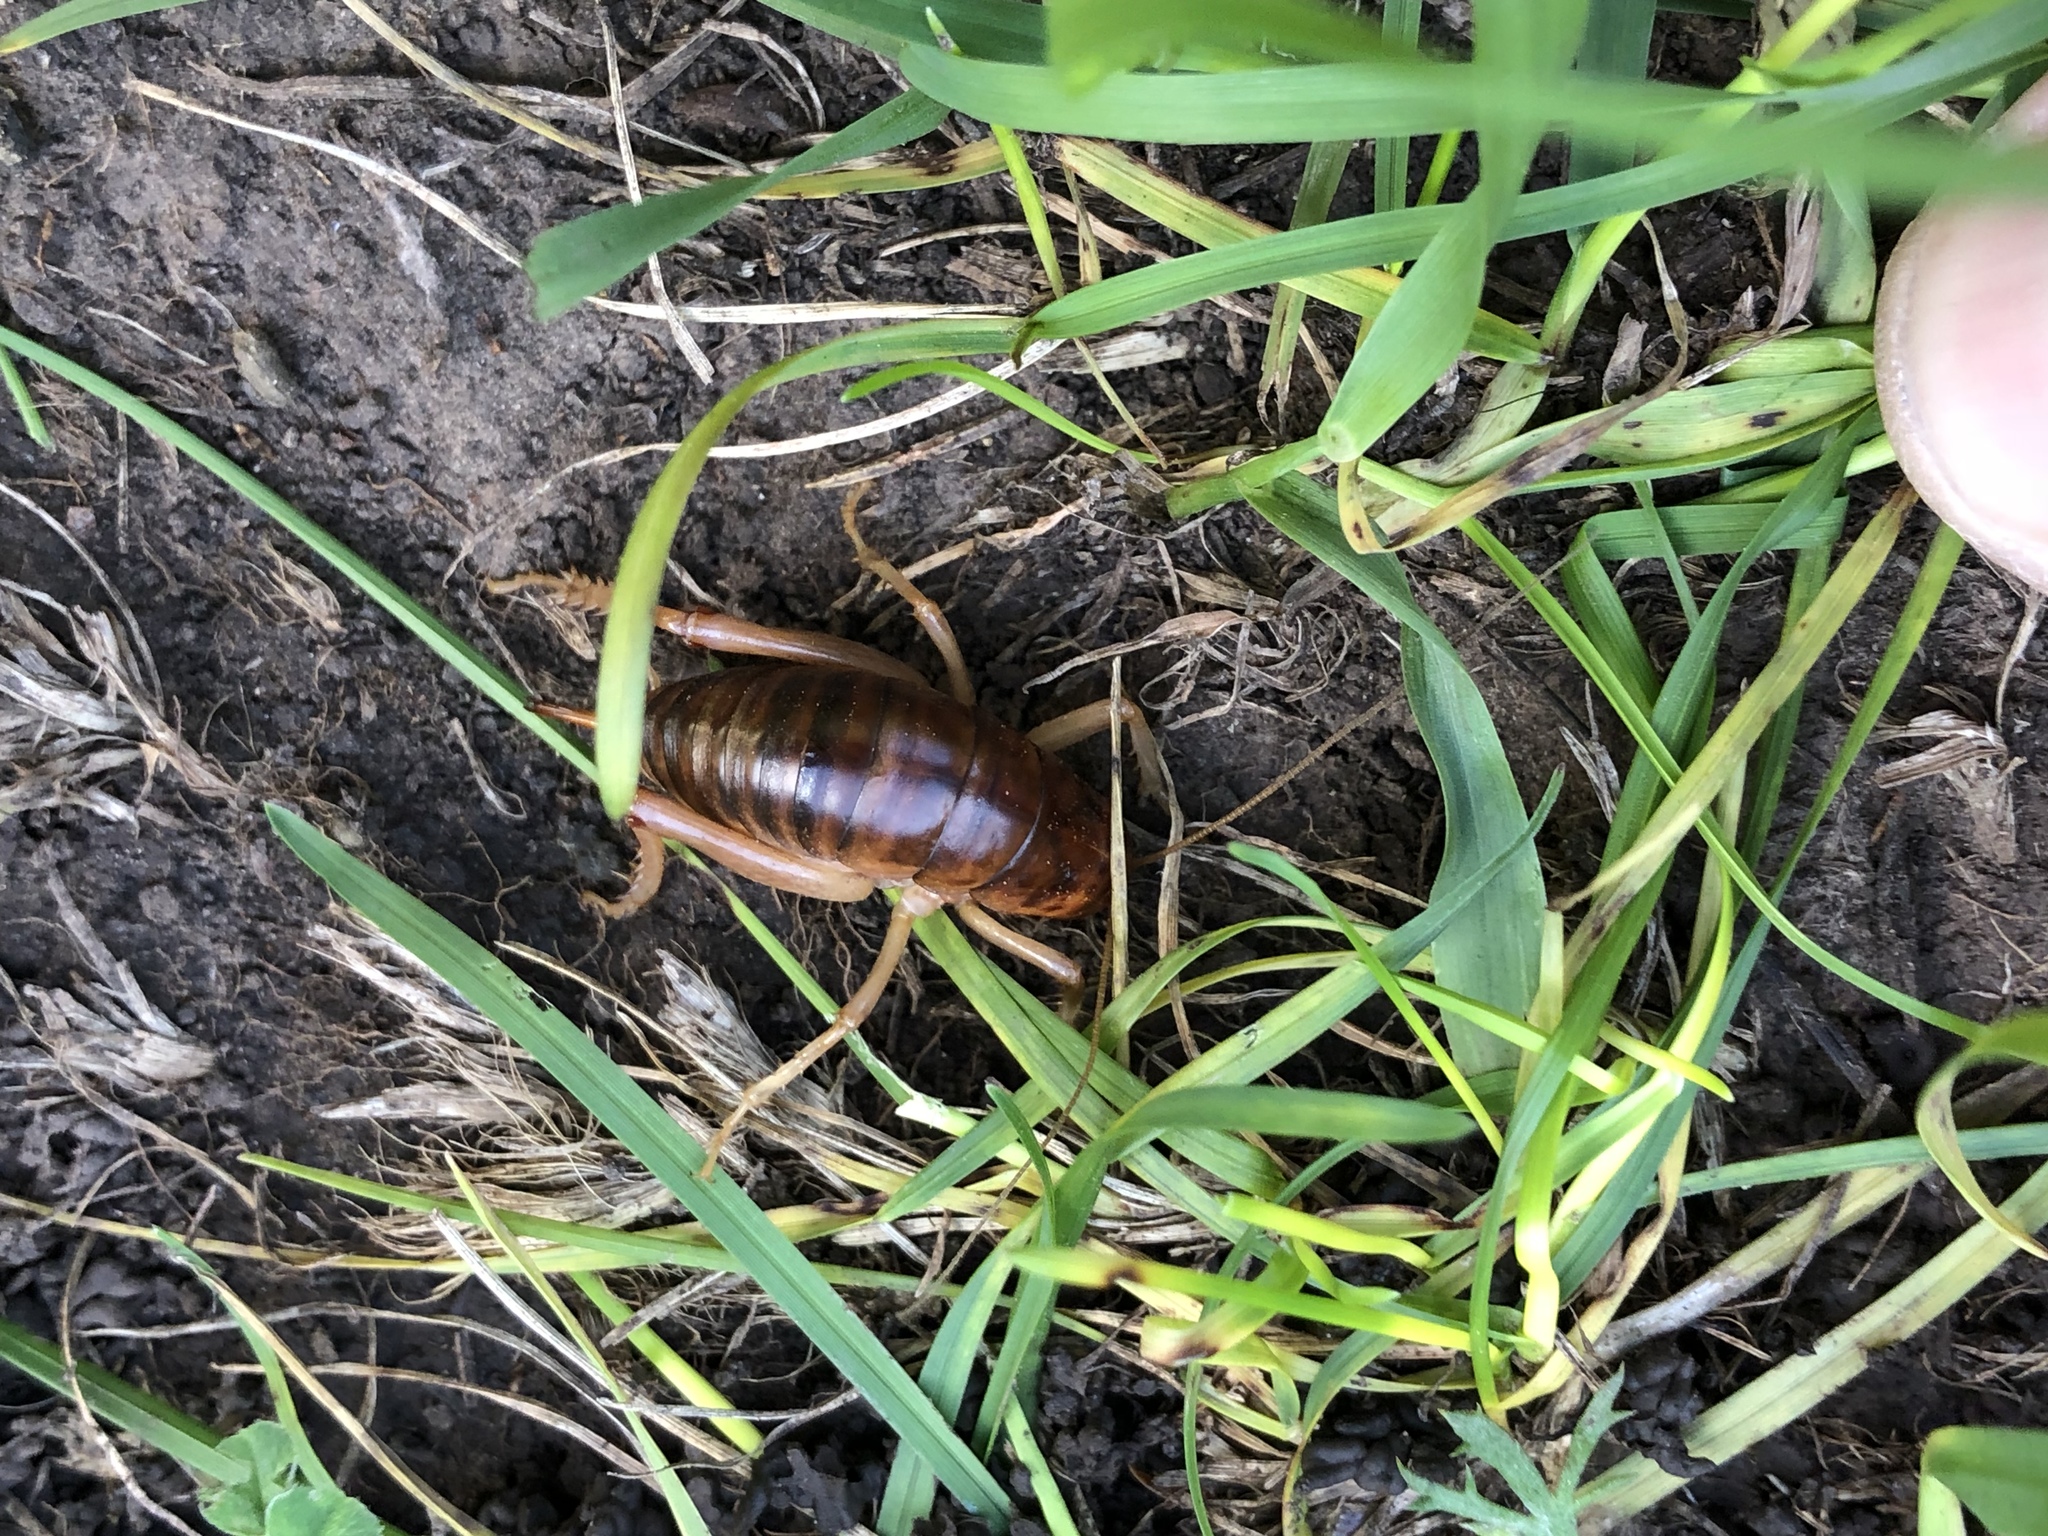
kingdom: Animalia
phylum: Arthropoda
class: Insecta
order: Orthoptera
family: Rhaphidophoridae
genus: Styracosceles
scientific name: Styracosceles neomexicanus
